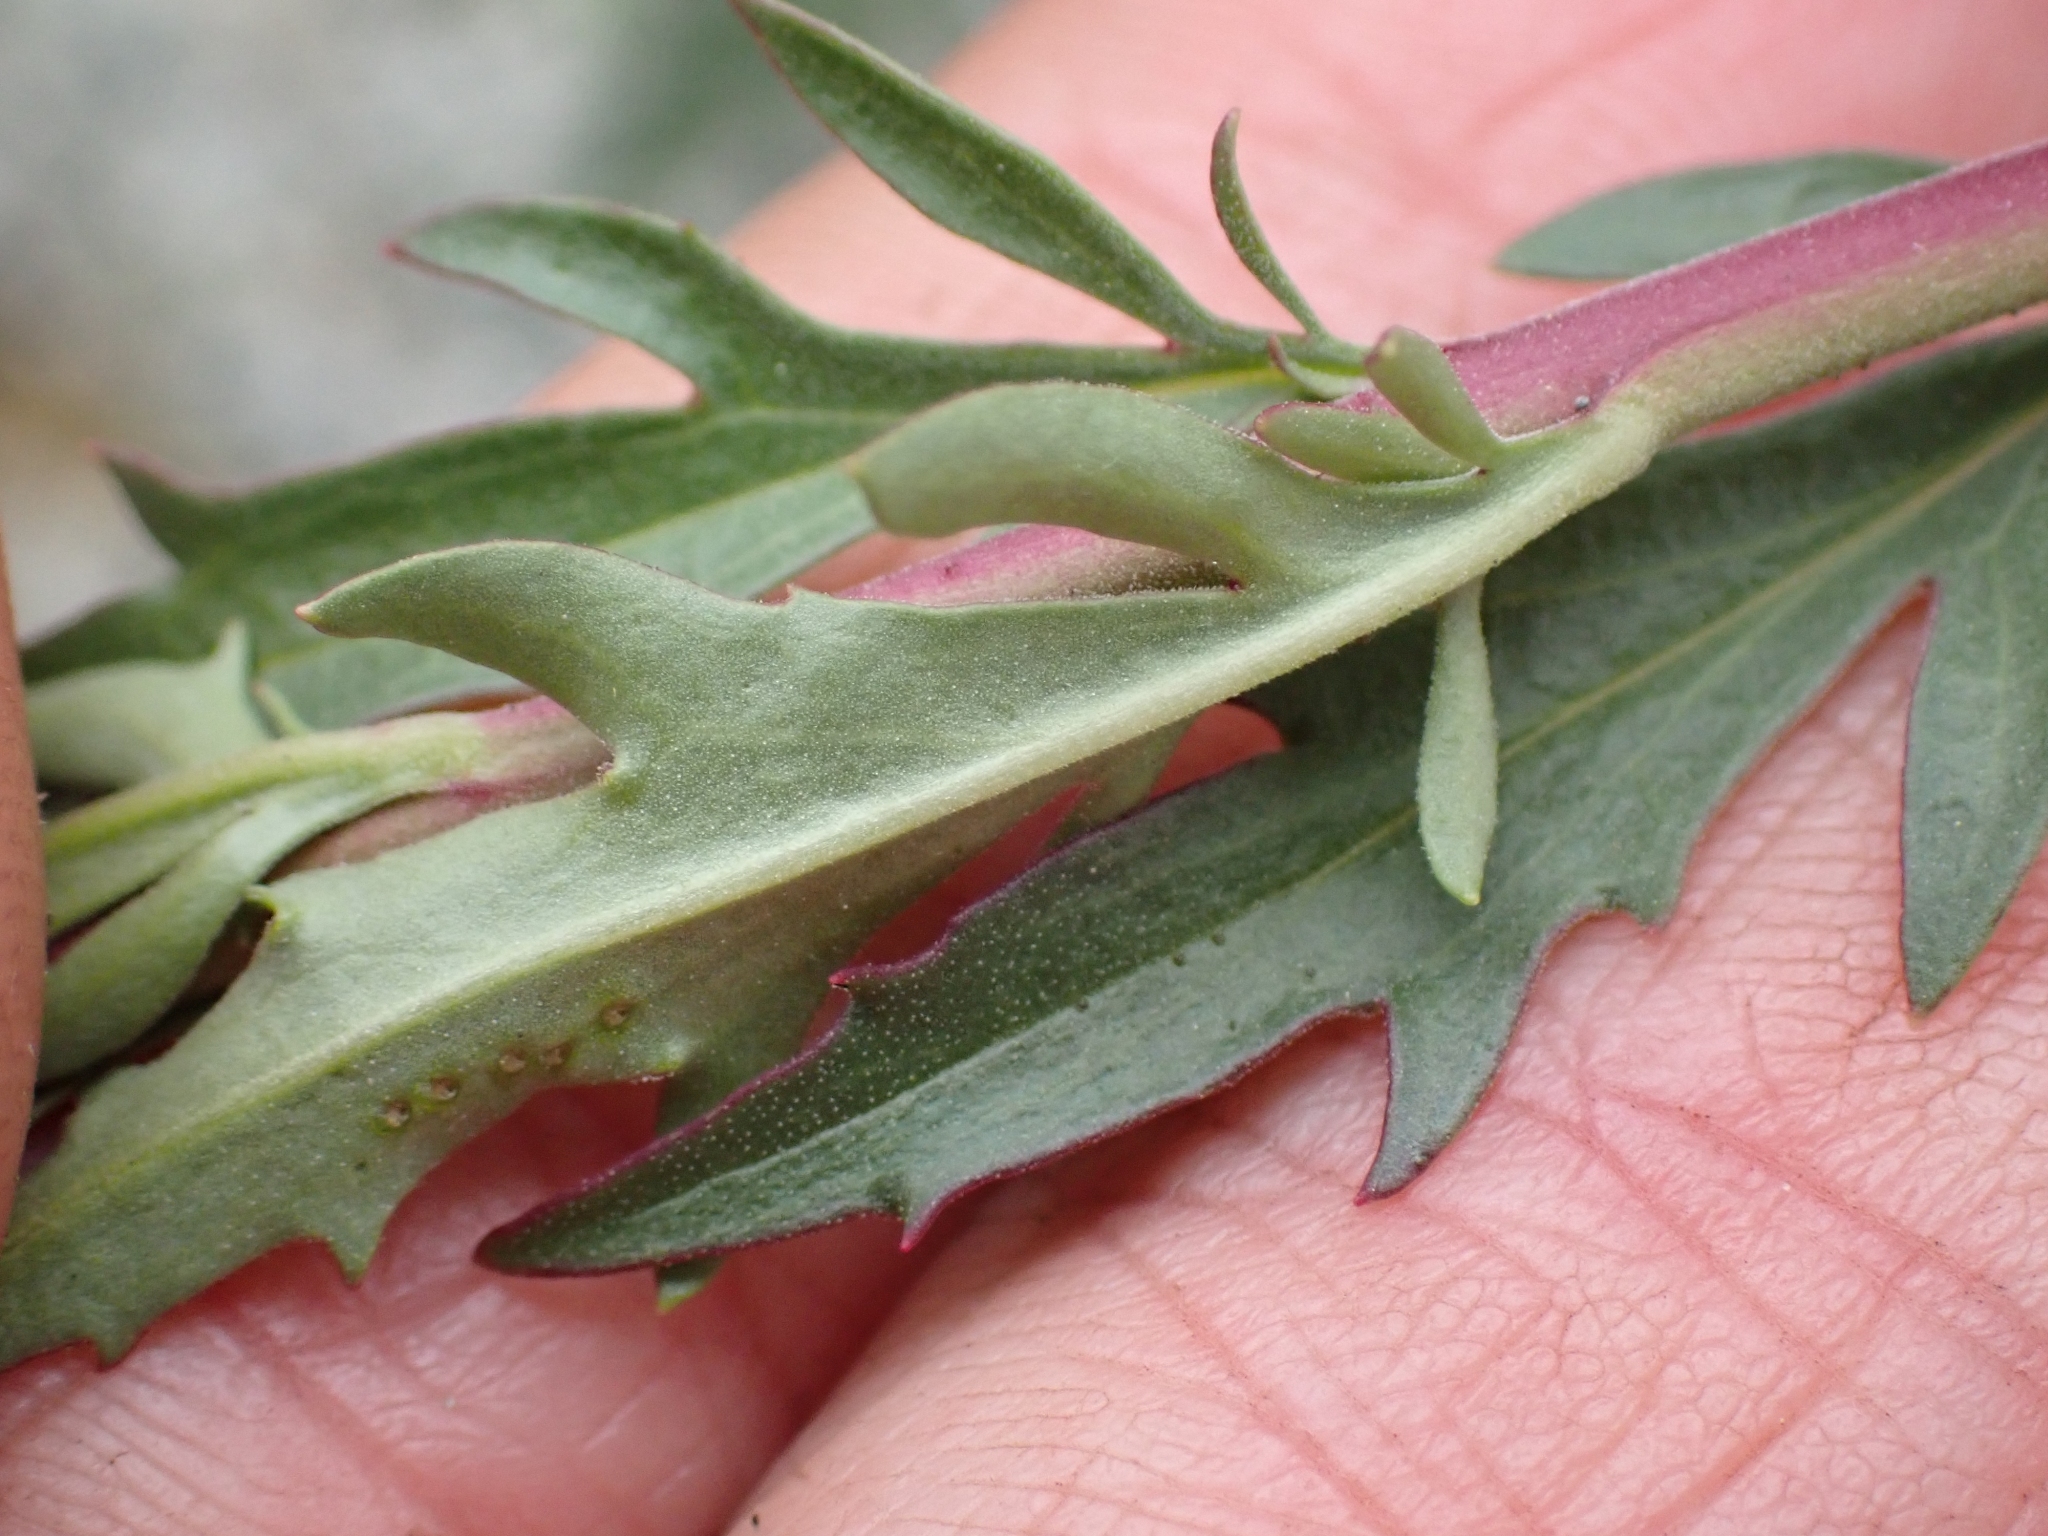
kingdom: Plantae
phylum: Tracheophyta
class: Magnoliopsida
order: Lamiales
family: Plantaginaceae
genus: Penstemon
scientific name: Penstemon richardsonii
